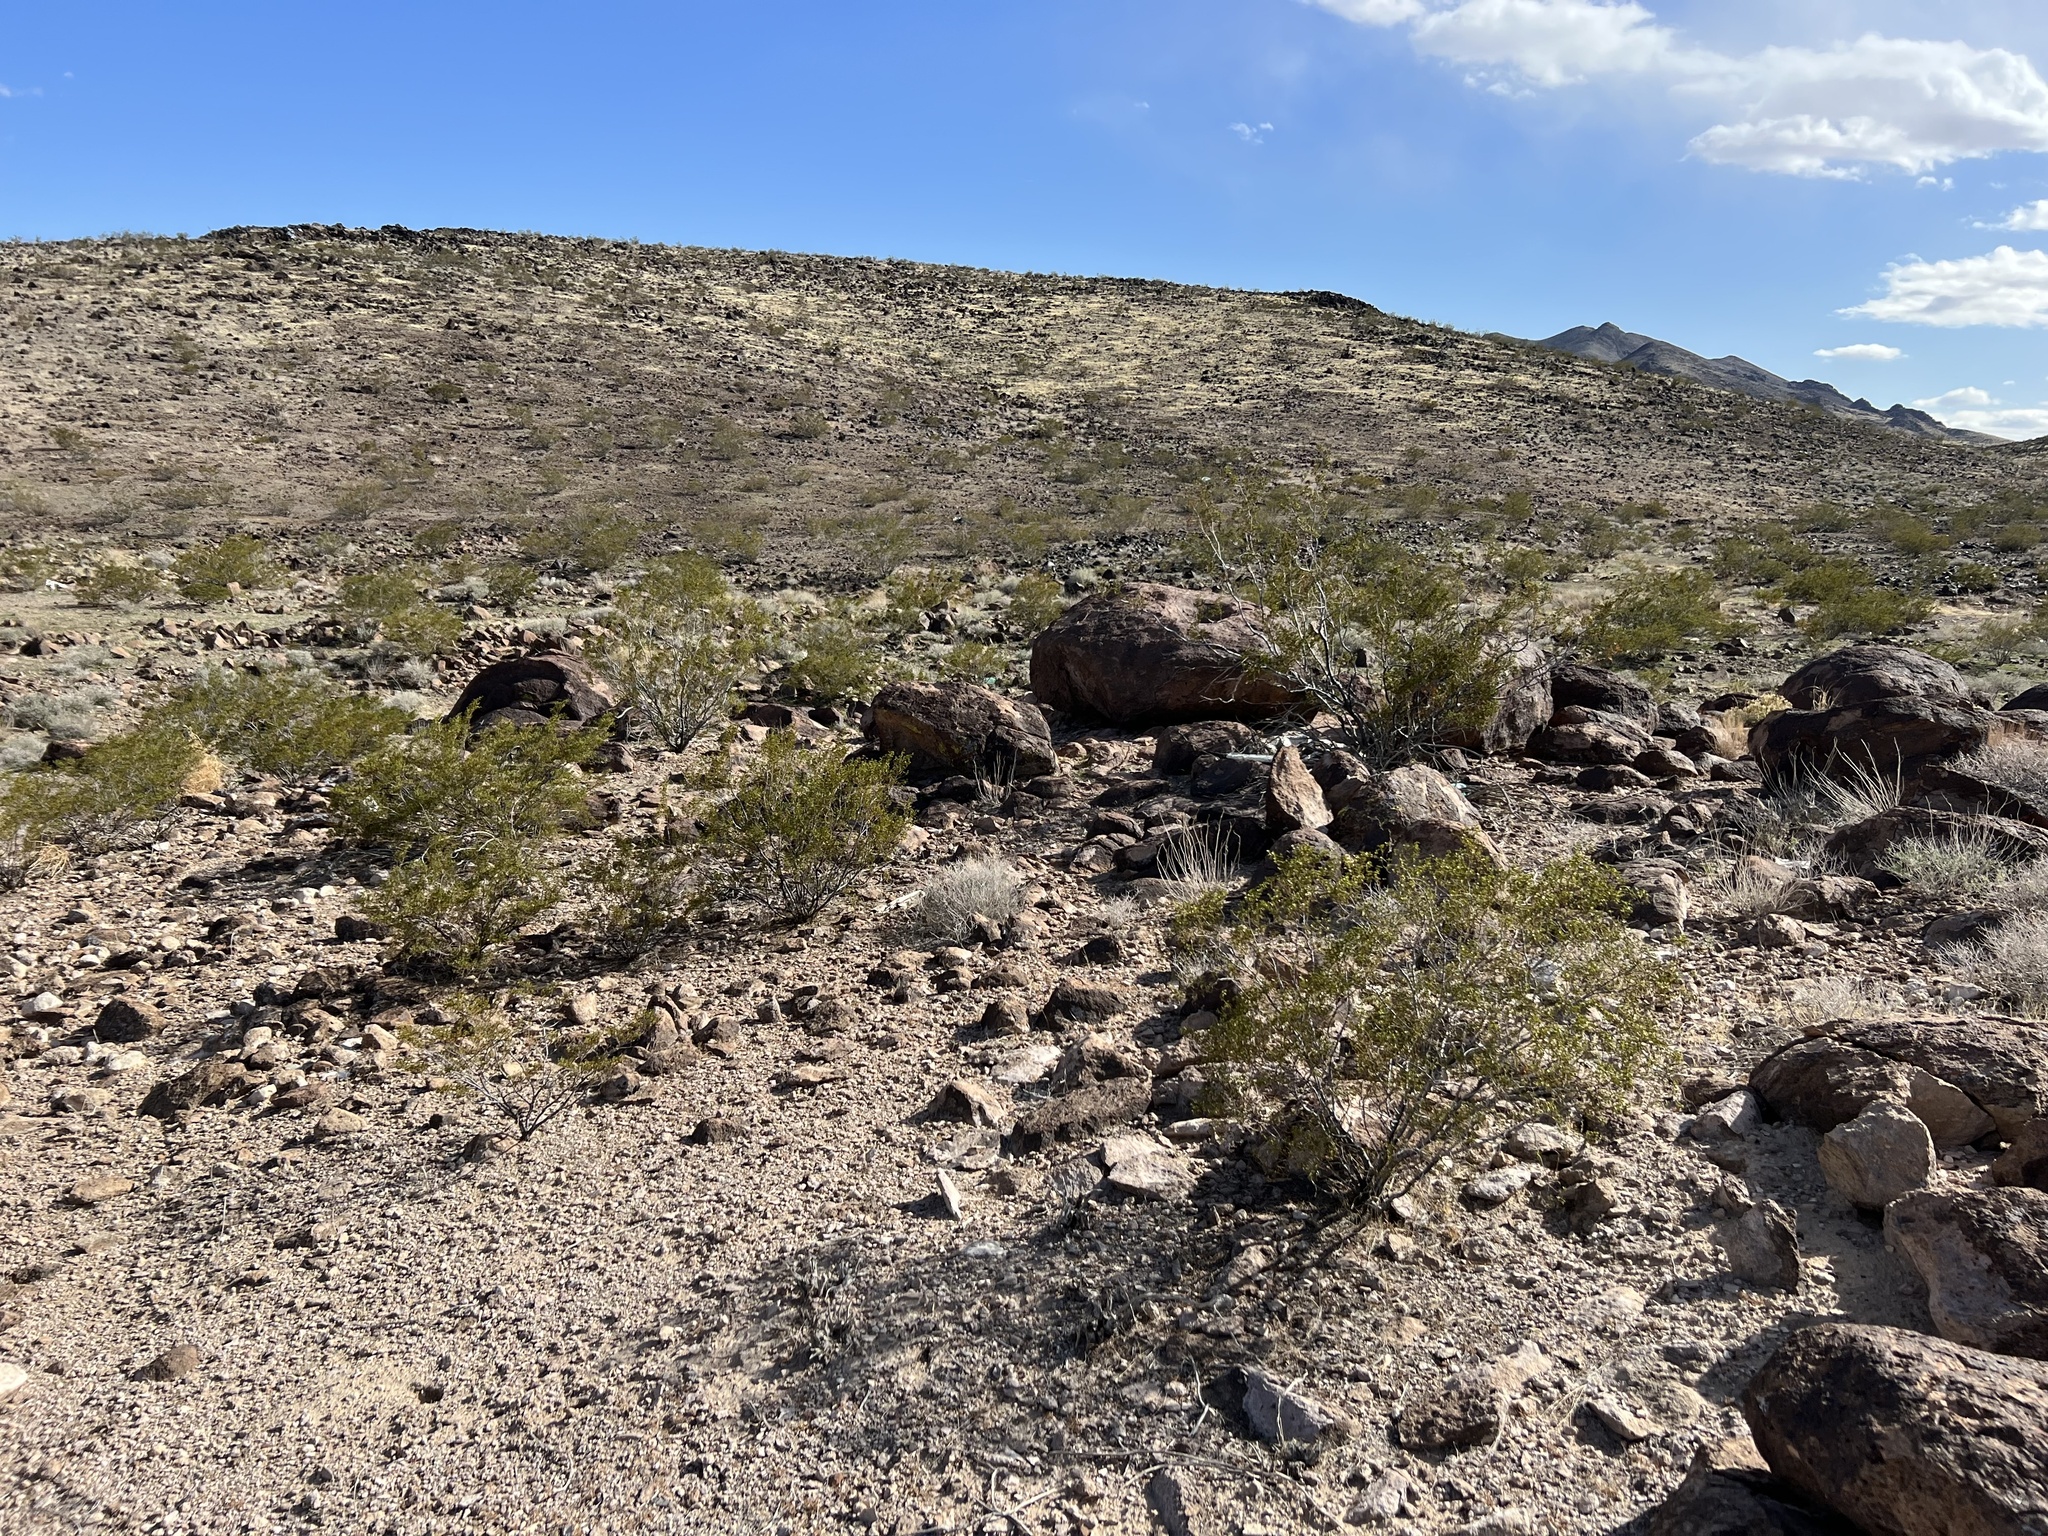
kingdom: Plantae
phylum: Tracheophyta
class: Magnoliopsida
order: Zygophyllales
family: Zygophyllaceae
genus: Larrea
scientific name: Larrea tridentata
